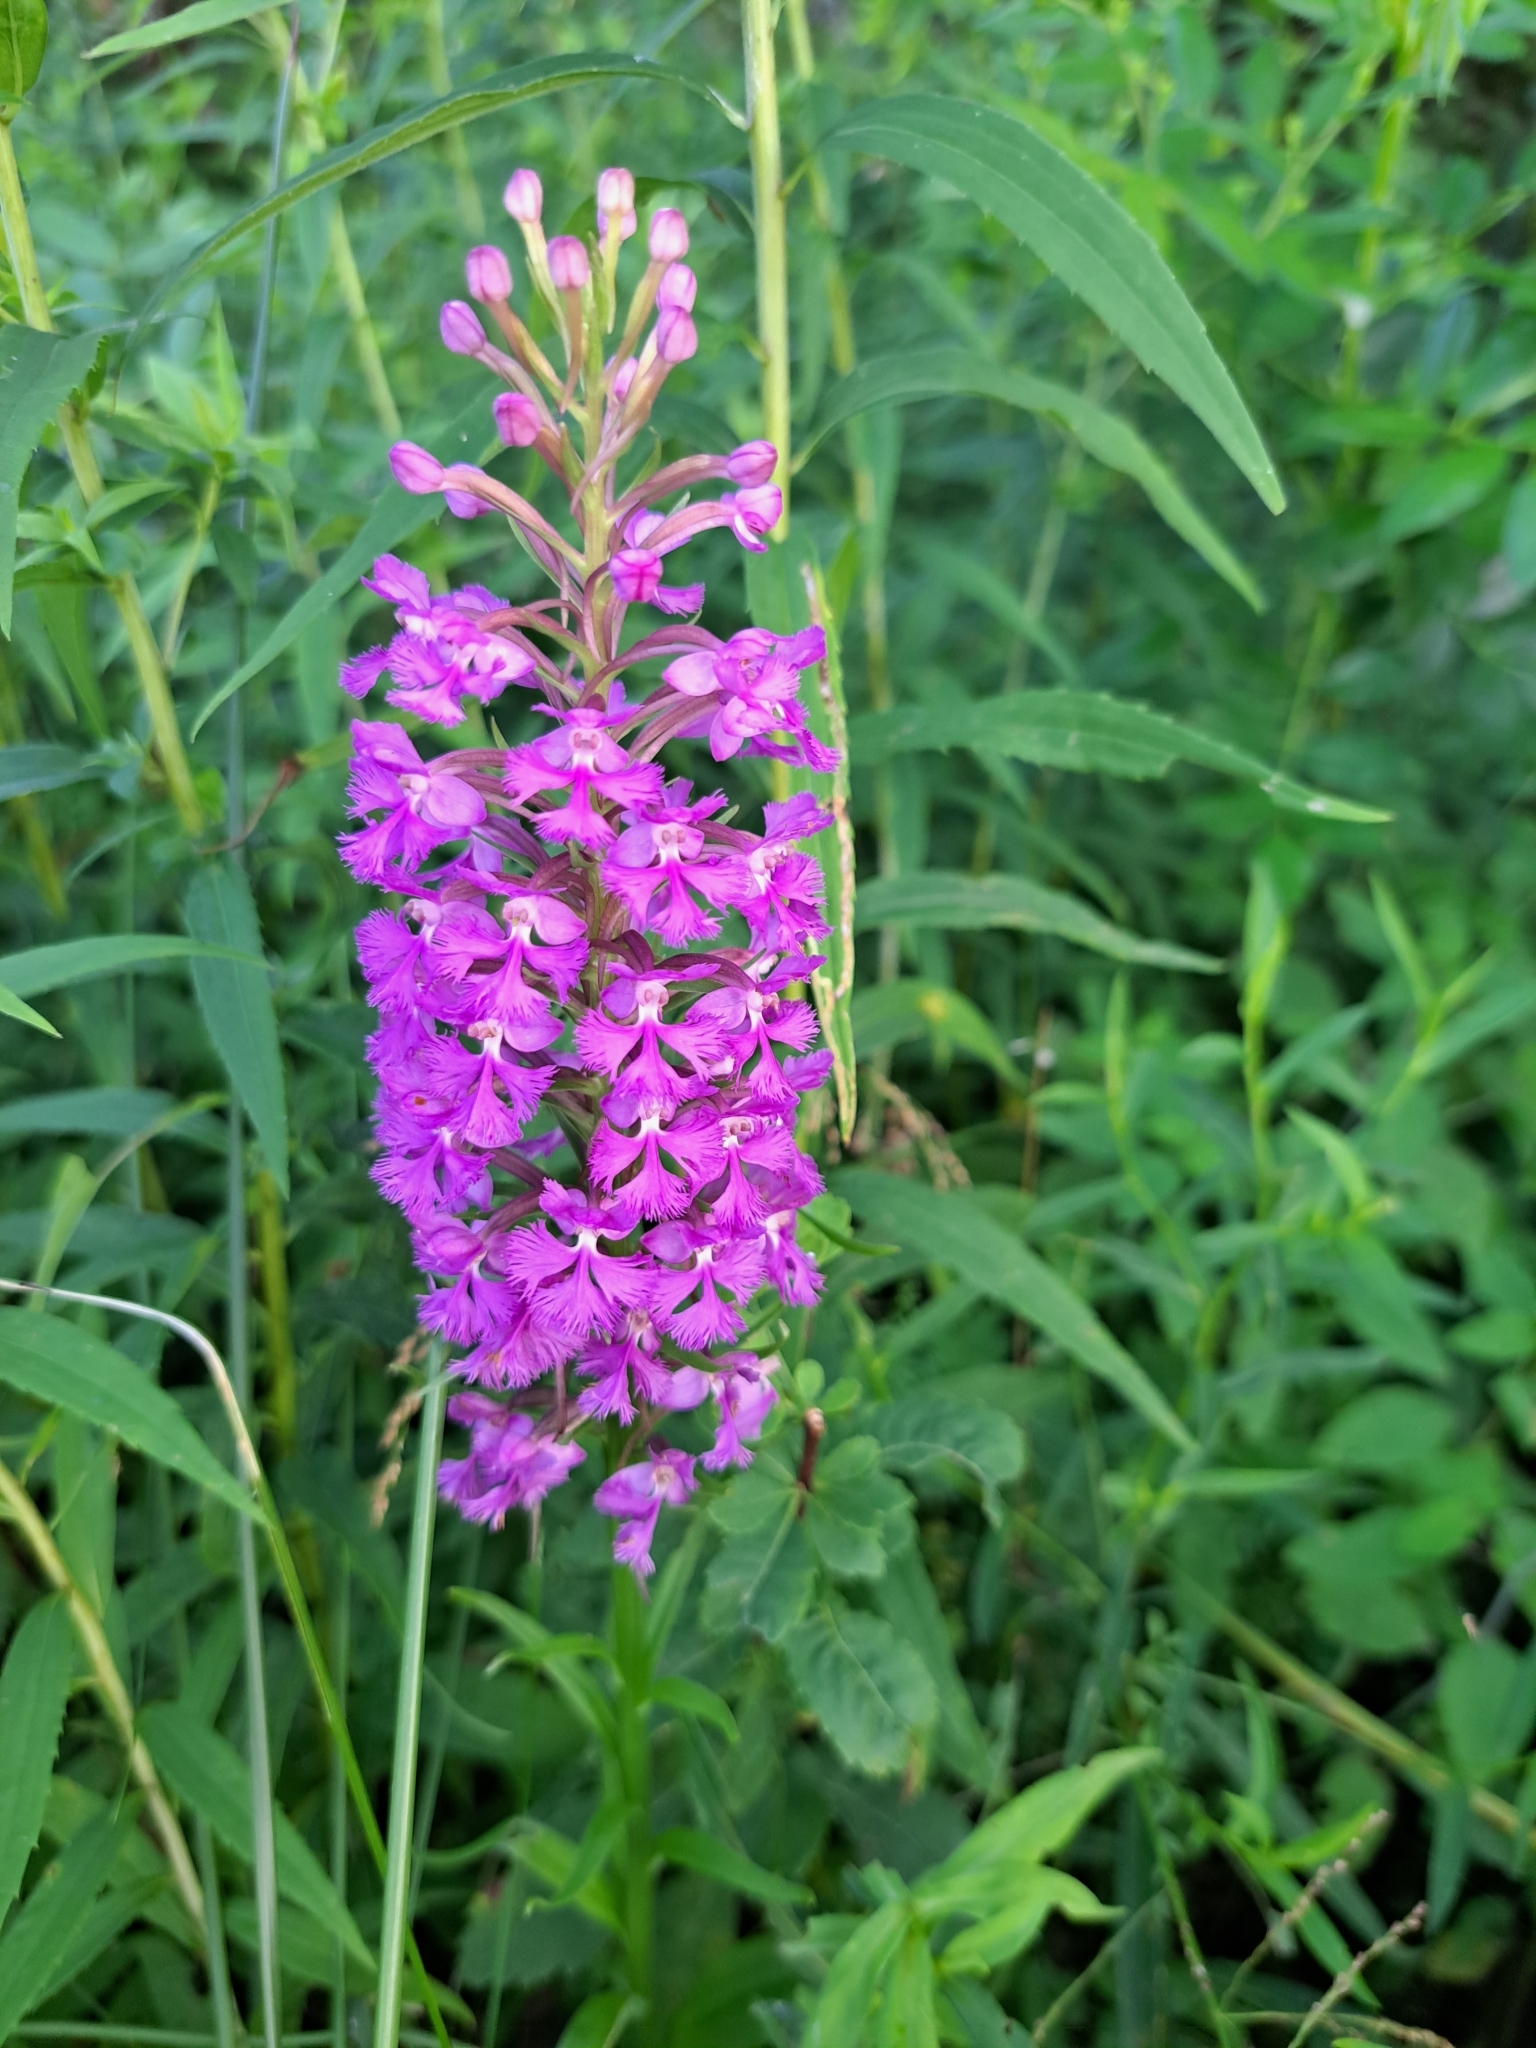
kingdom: Plantae
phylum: Tracheophyta
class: Liliopsida
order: Asparagales
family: Orchidaceae
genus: Platanthera
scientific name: Platanthera psycodes
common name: Lesser purple fringed orchid
